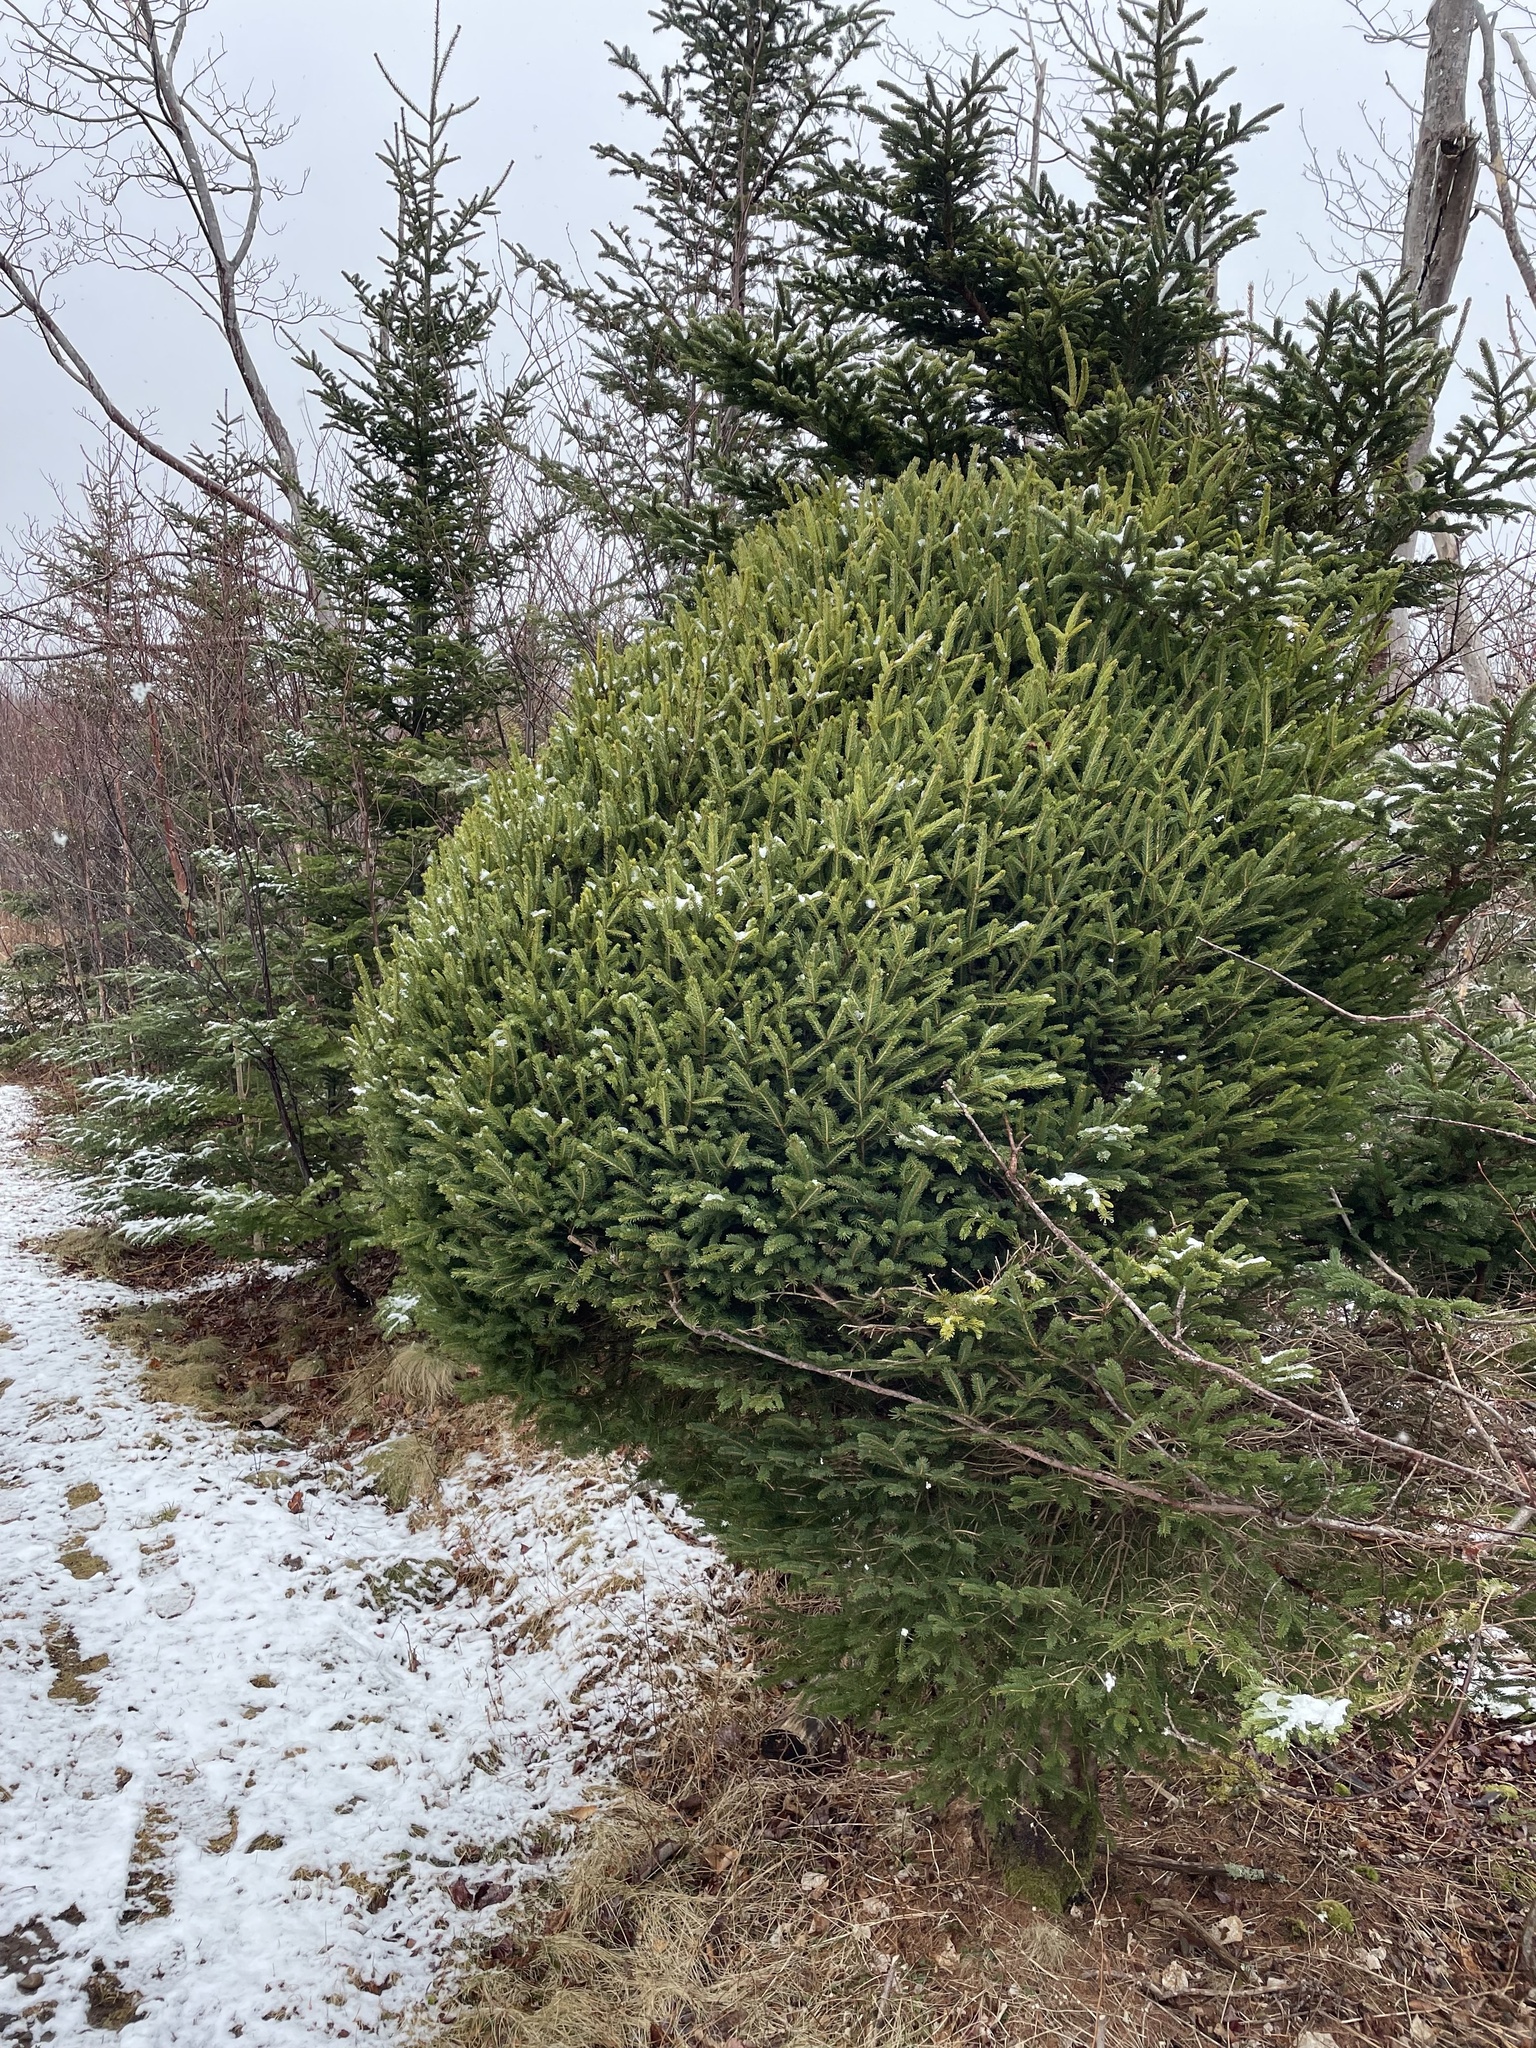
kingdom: Plantae
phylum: Tracheophyta
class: Magnoliopsida
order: Santalales
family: Viscaceae
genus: Arceuthobium
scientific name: Arceuthobium pusillum
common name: Dwarf-mistletoe
